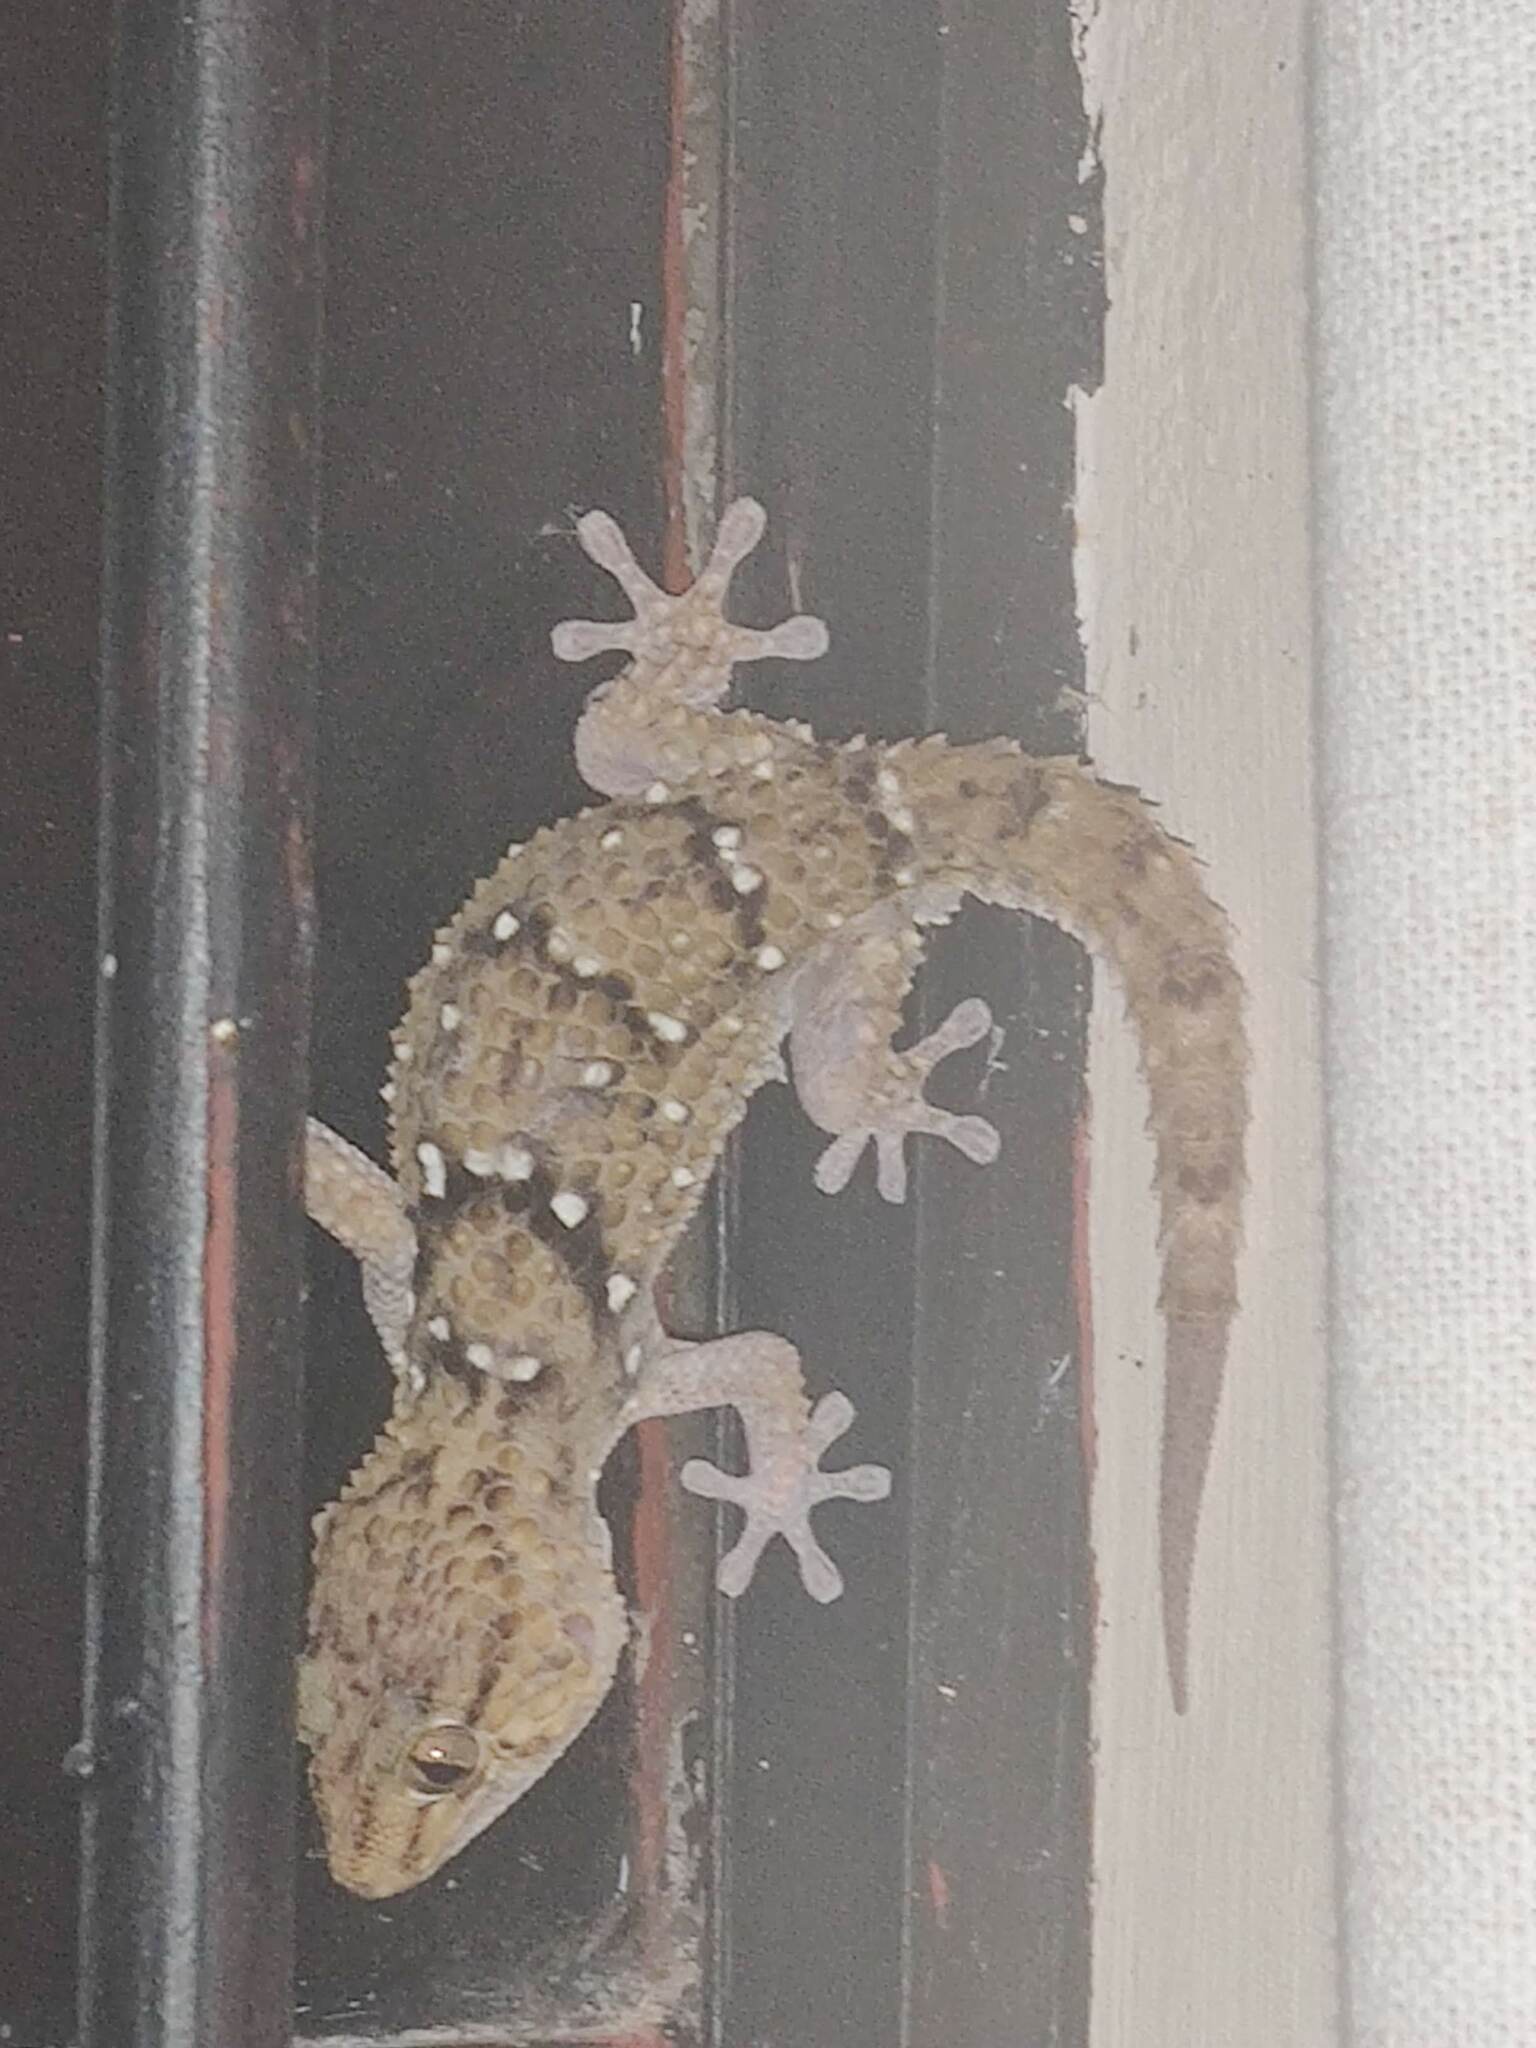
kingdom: Animalia
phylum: Chordata
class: Squamata
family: Gekkonidae
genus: Chondrodactylus
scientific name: Chondrodactylus turneri
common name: Turner’s gecko
